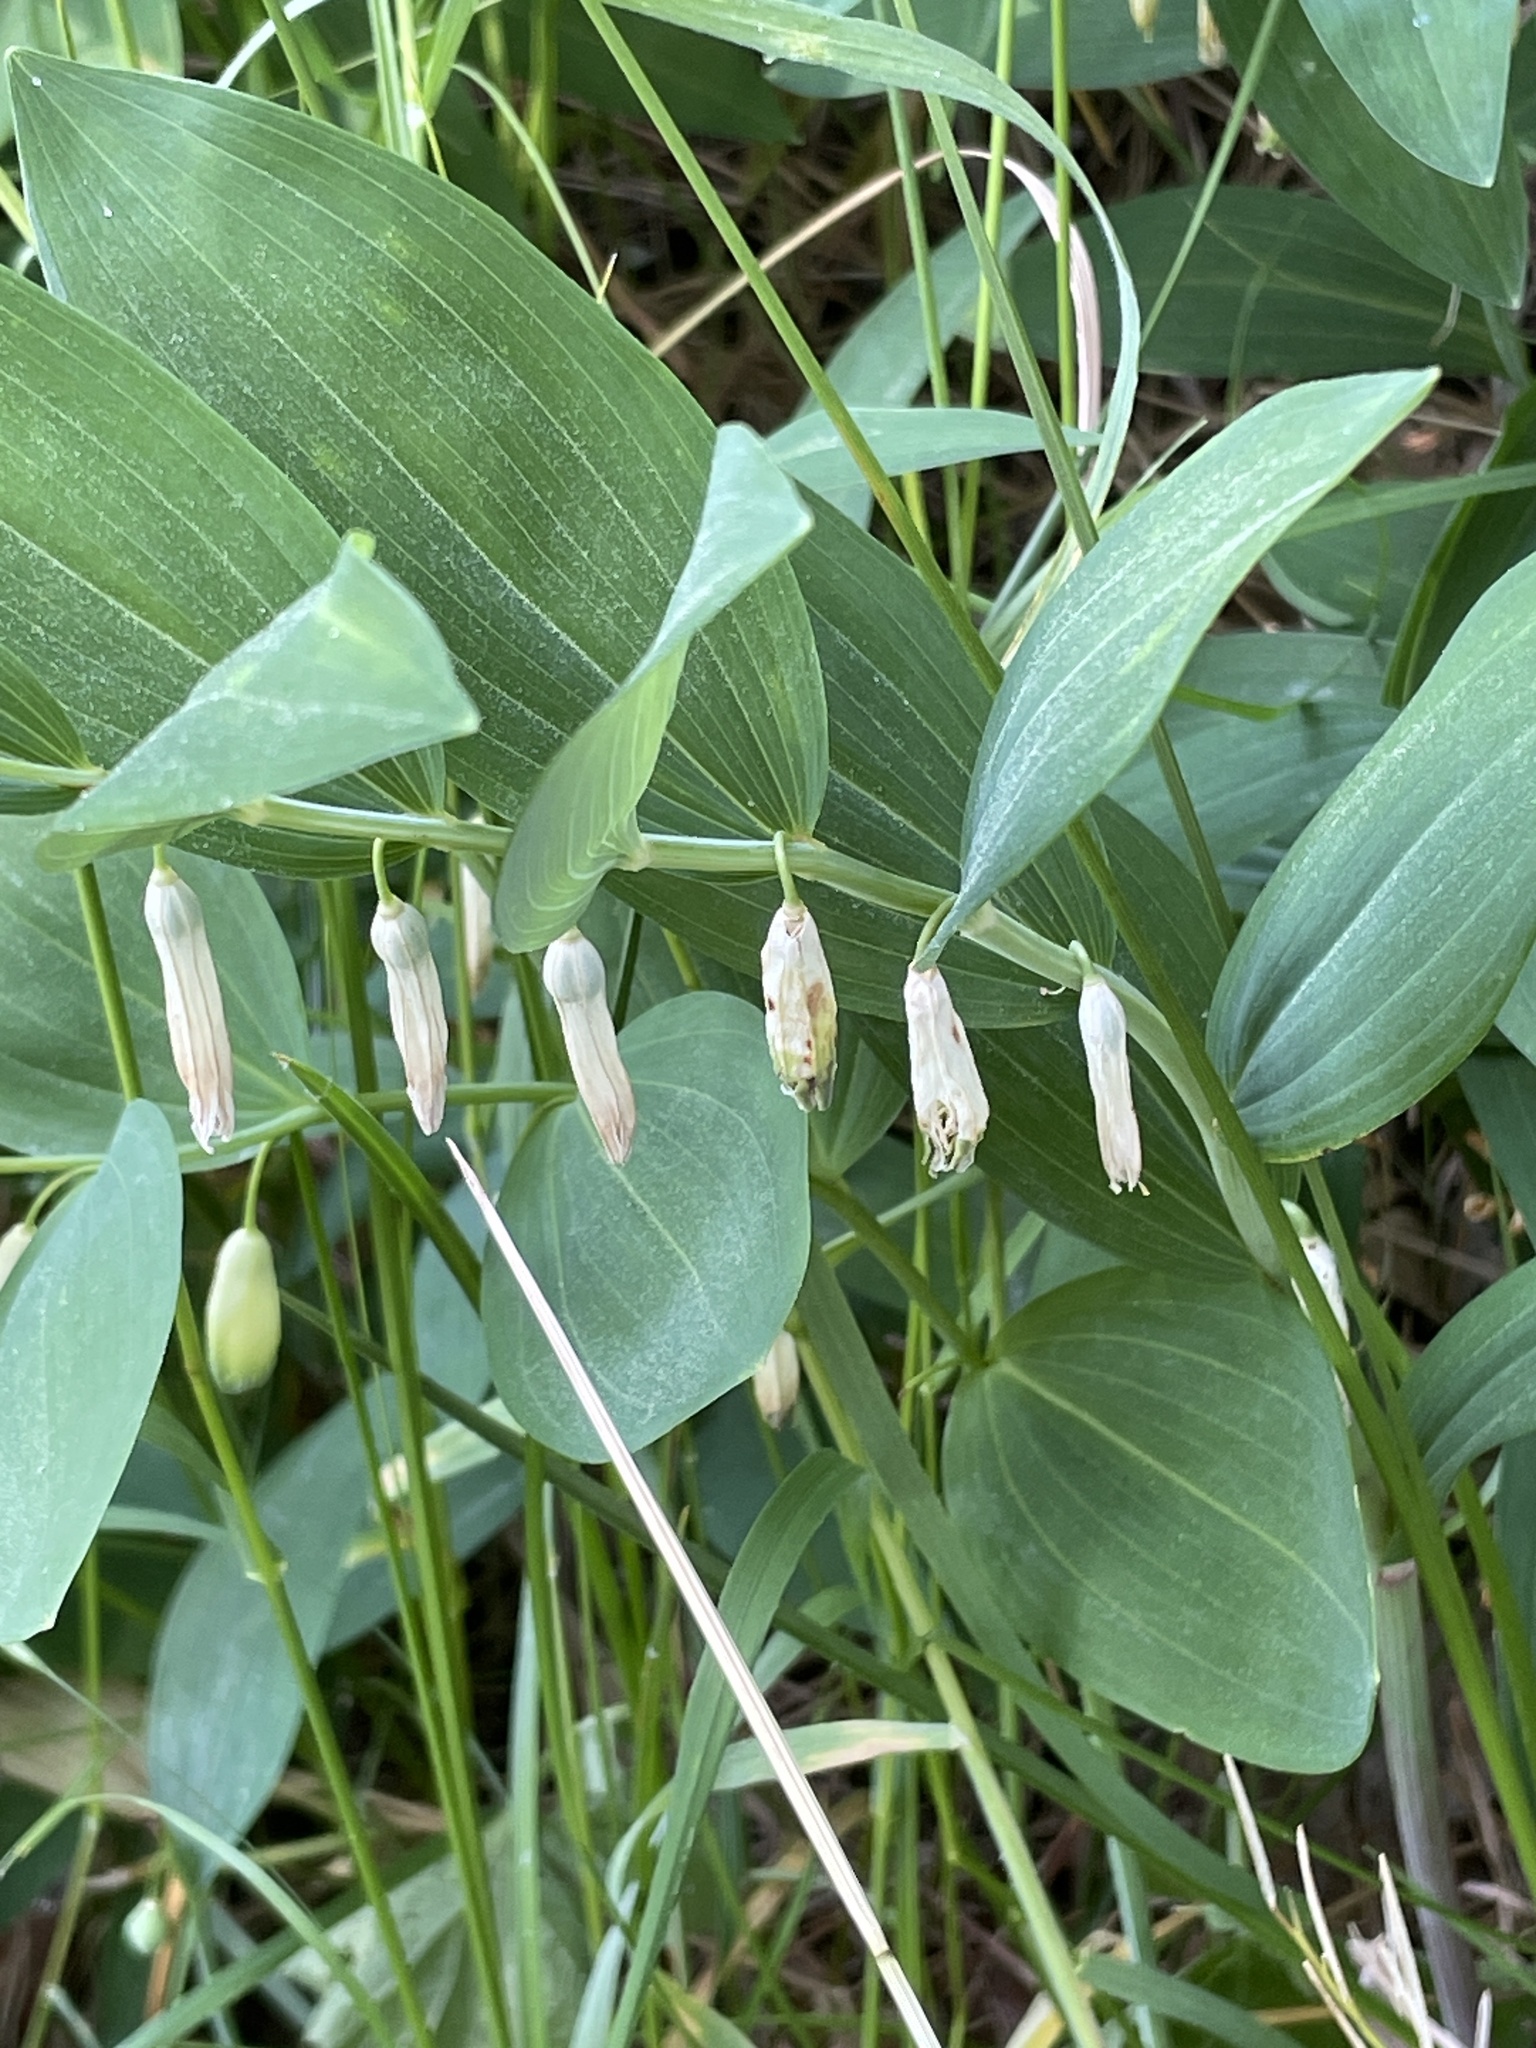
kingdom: Plantae
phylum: Tracheophyta
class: Liliopsida
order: Asparagales
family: Asparagaceae
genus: Polygonatum
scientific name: Polygonatum odoratum
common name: Angular solomon's-seal
